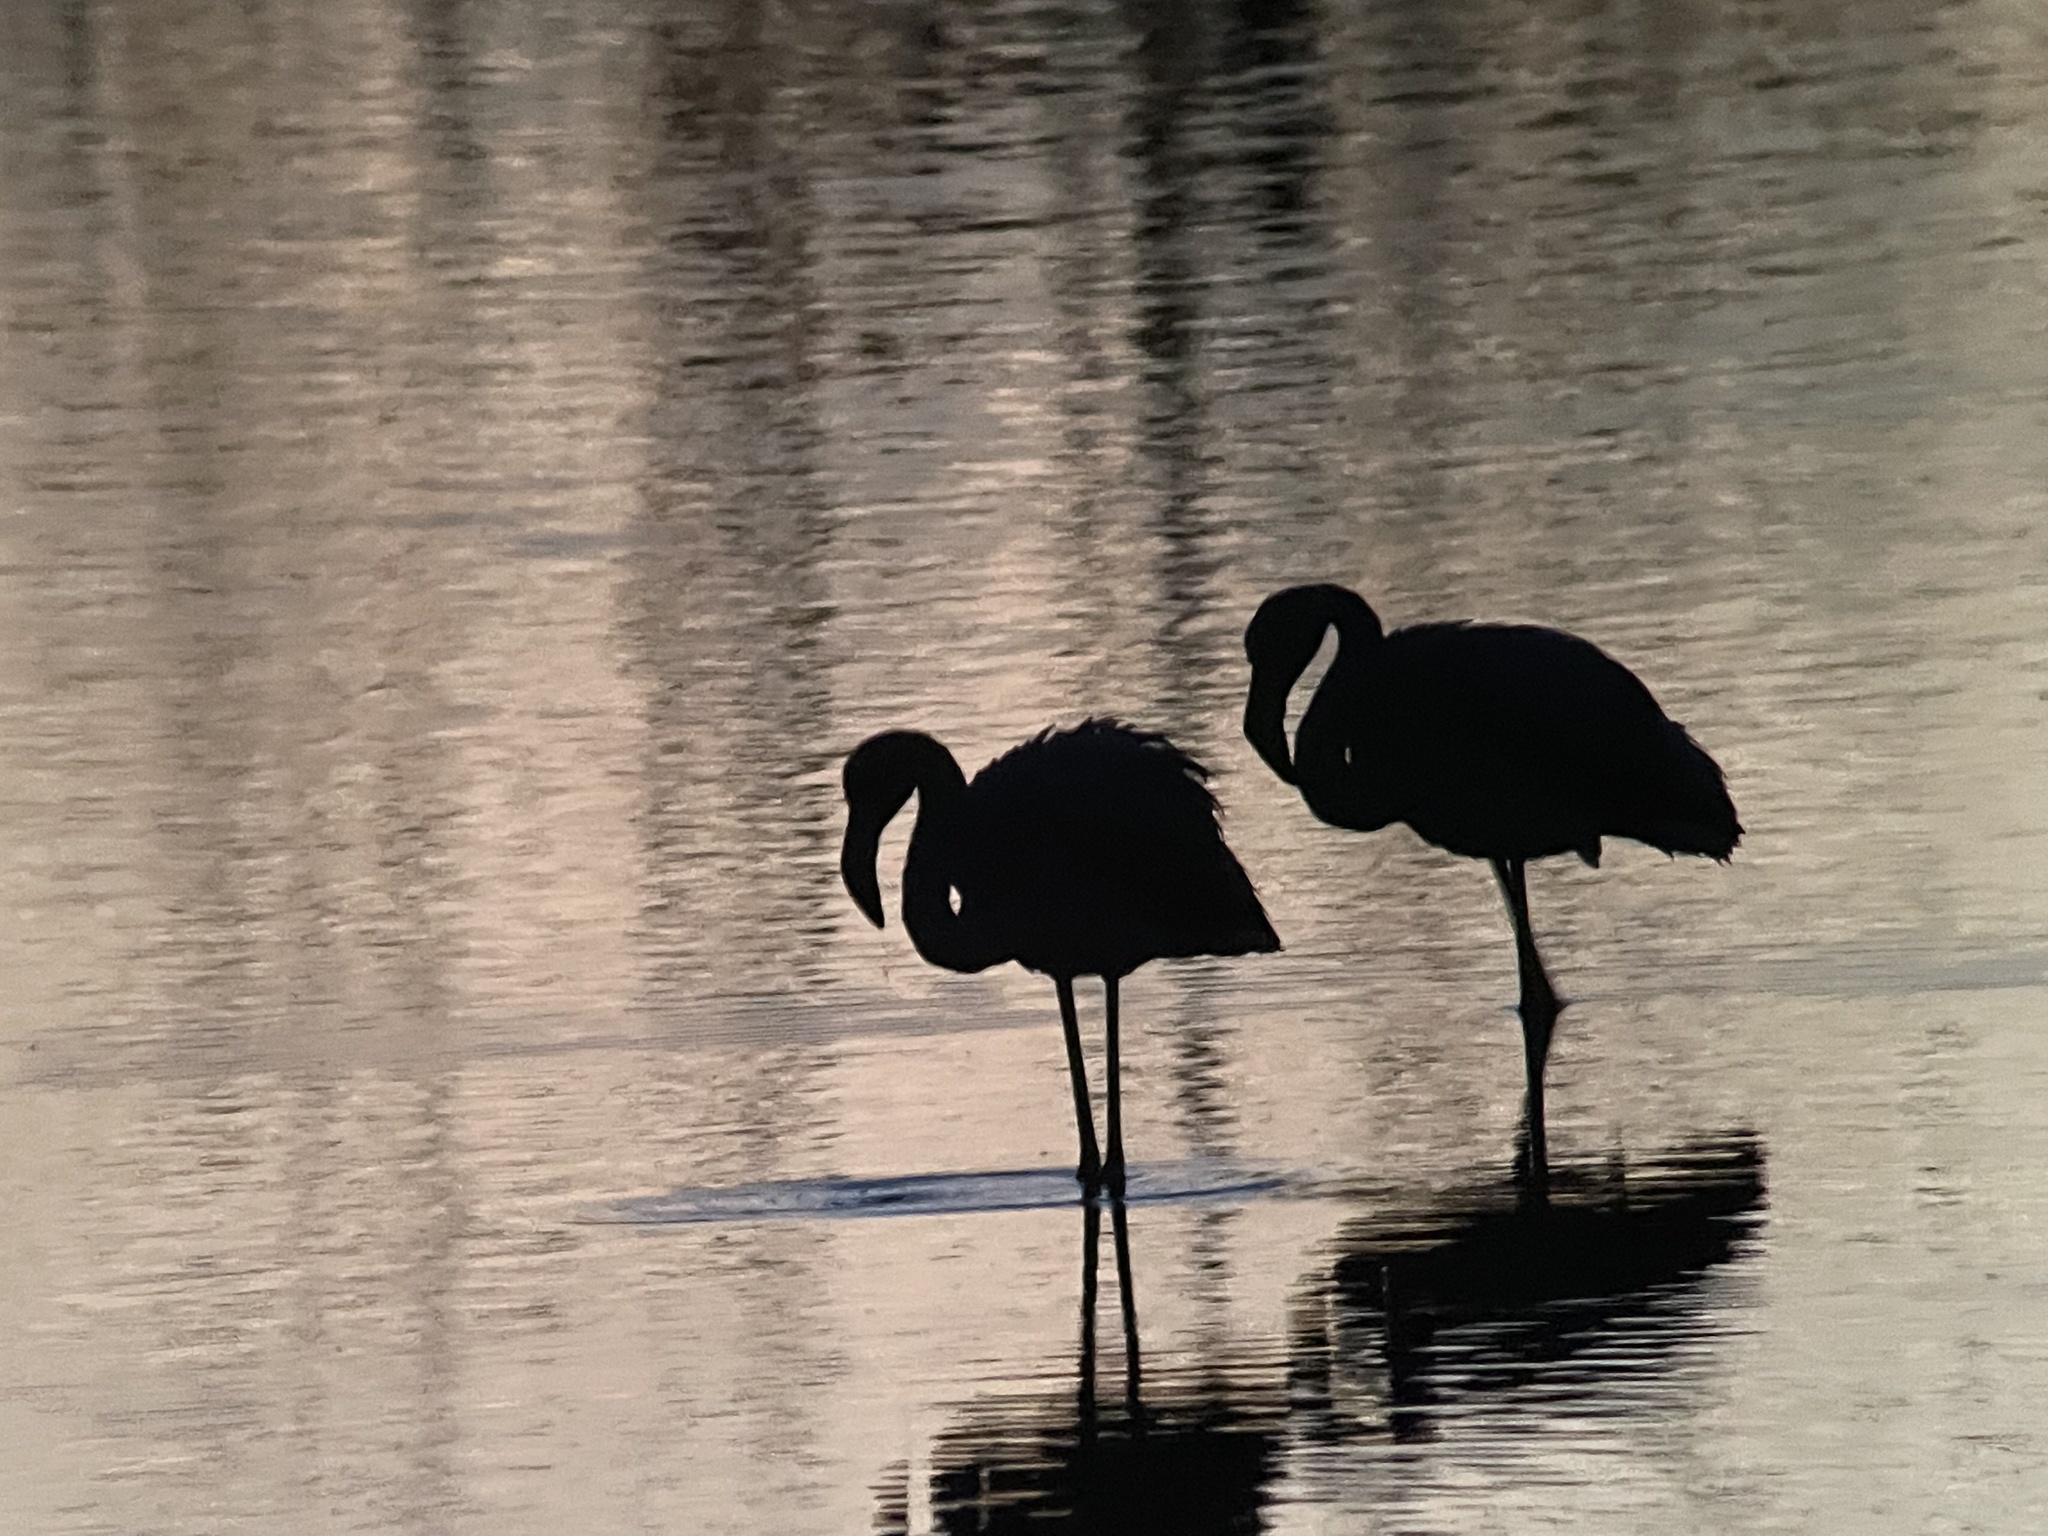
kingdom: Animalia
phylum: Chordata
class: Aves
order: Phoenicopteriformes
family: Phoenicopteridae
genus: Phoenicopterus
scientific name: Phoenicopterus roseus
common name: Greater flamingo
